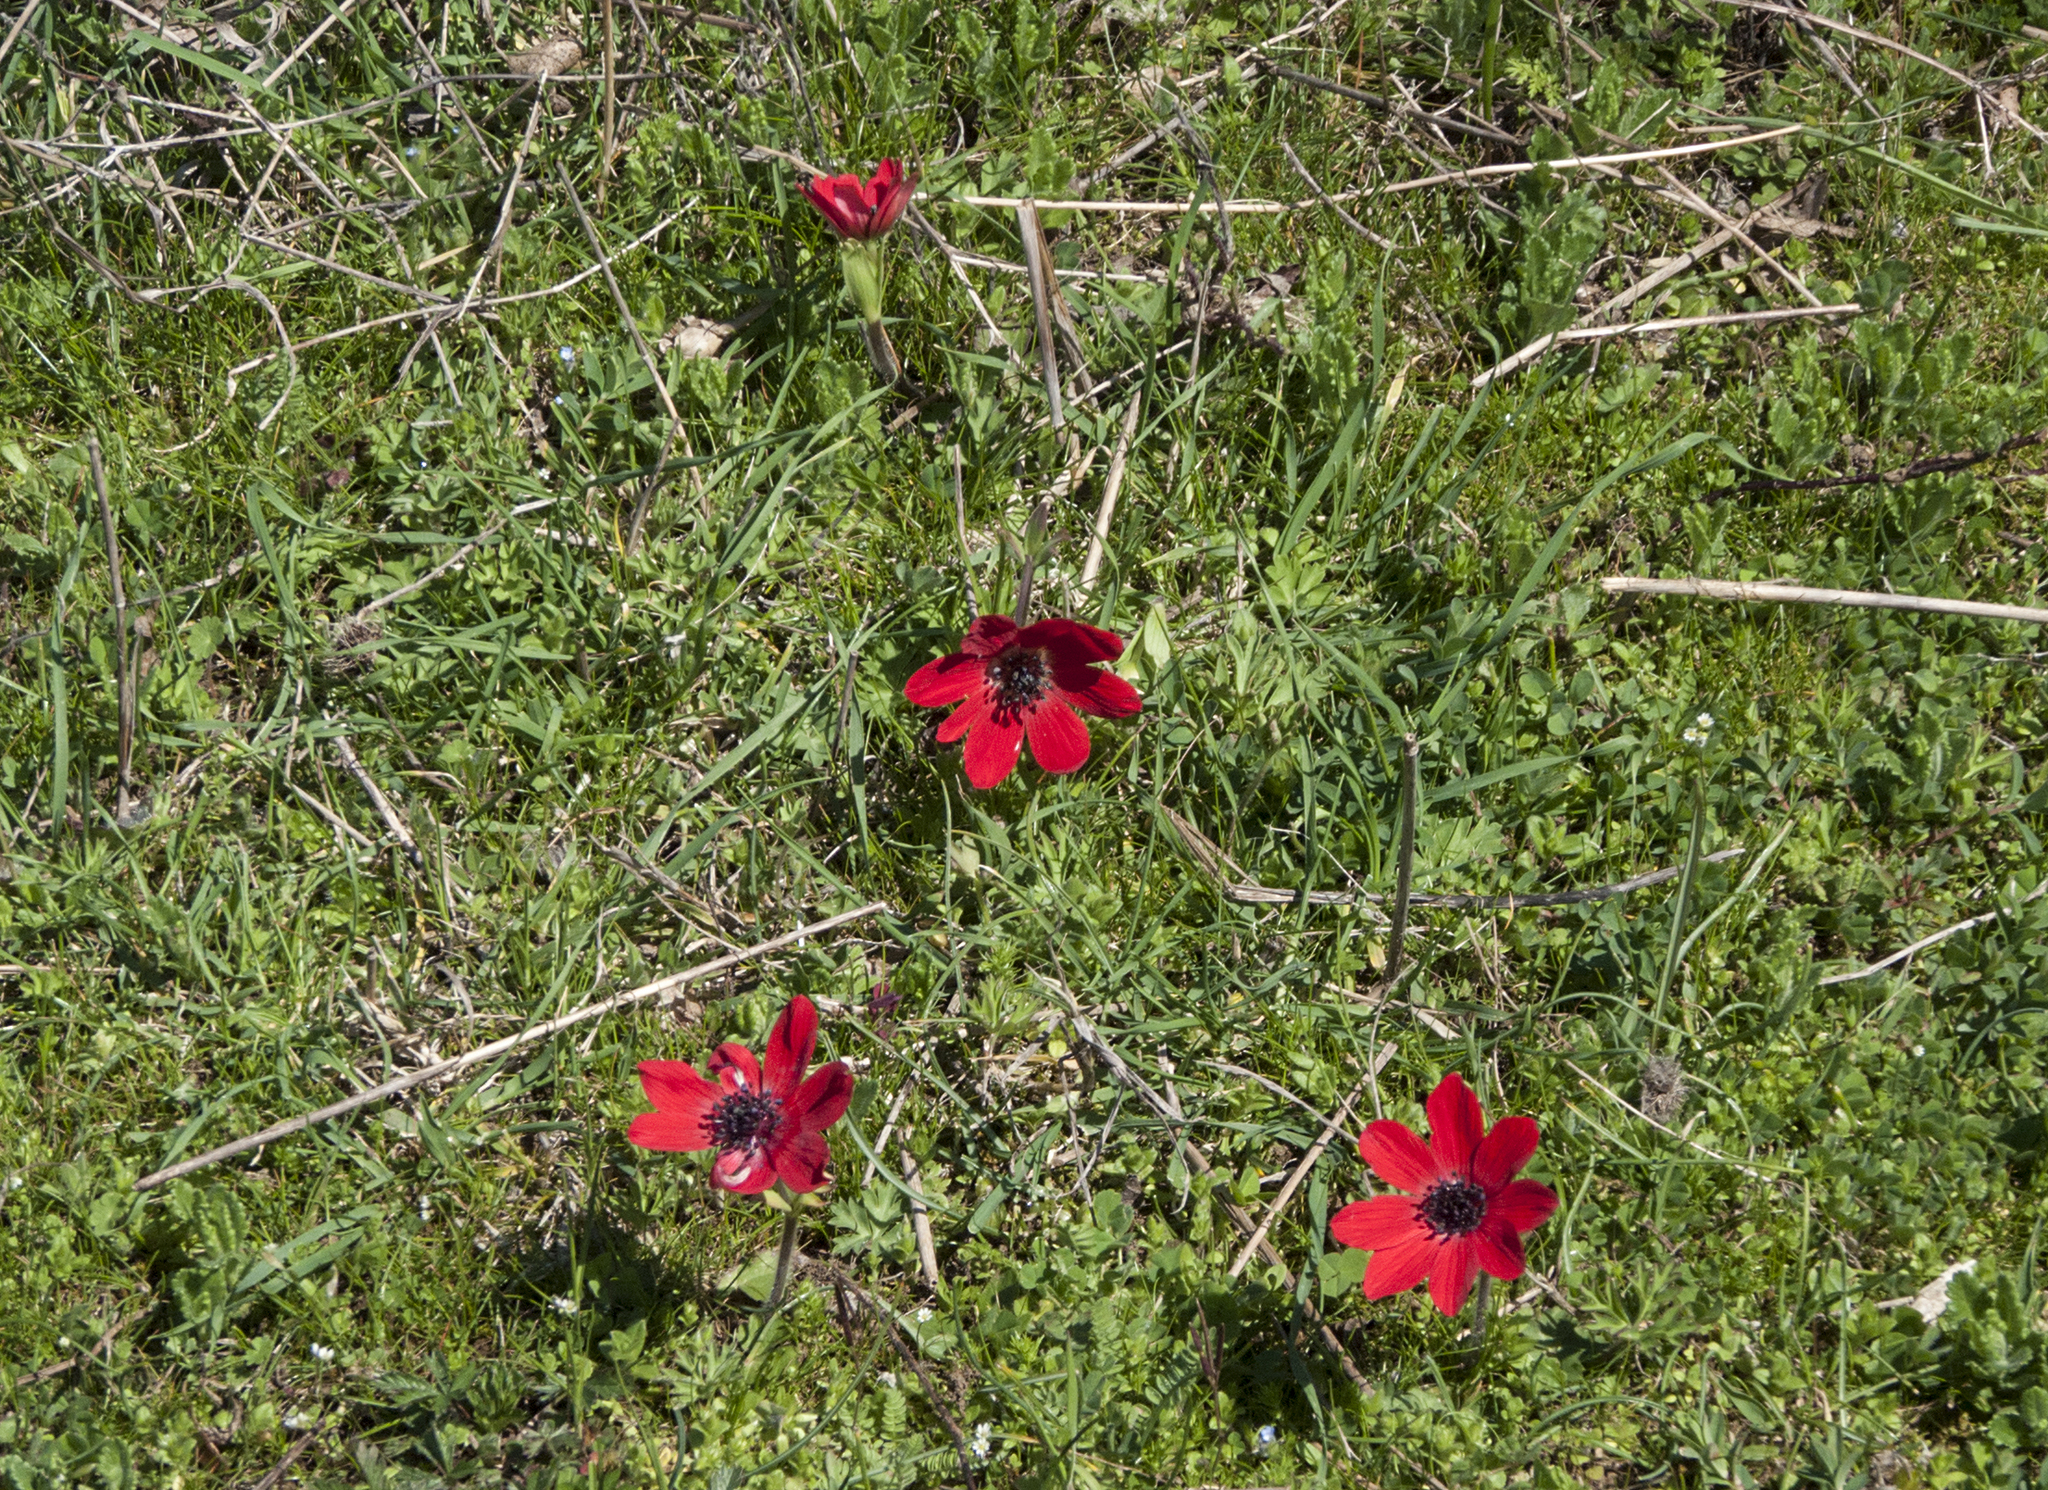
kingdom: Plantae
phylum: Tracheophyta
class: Magnoliopsida
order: Ranunculales
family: Ranunculaceae
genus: Anemone
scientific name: Anemone pavonina
